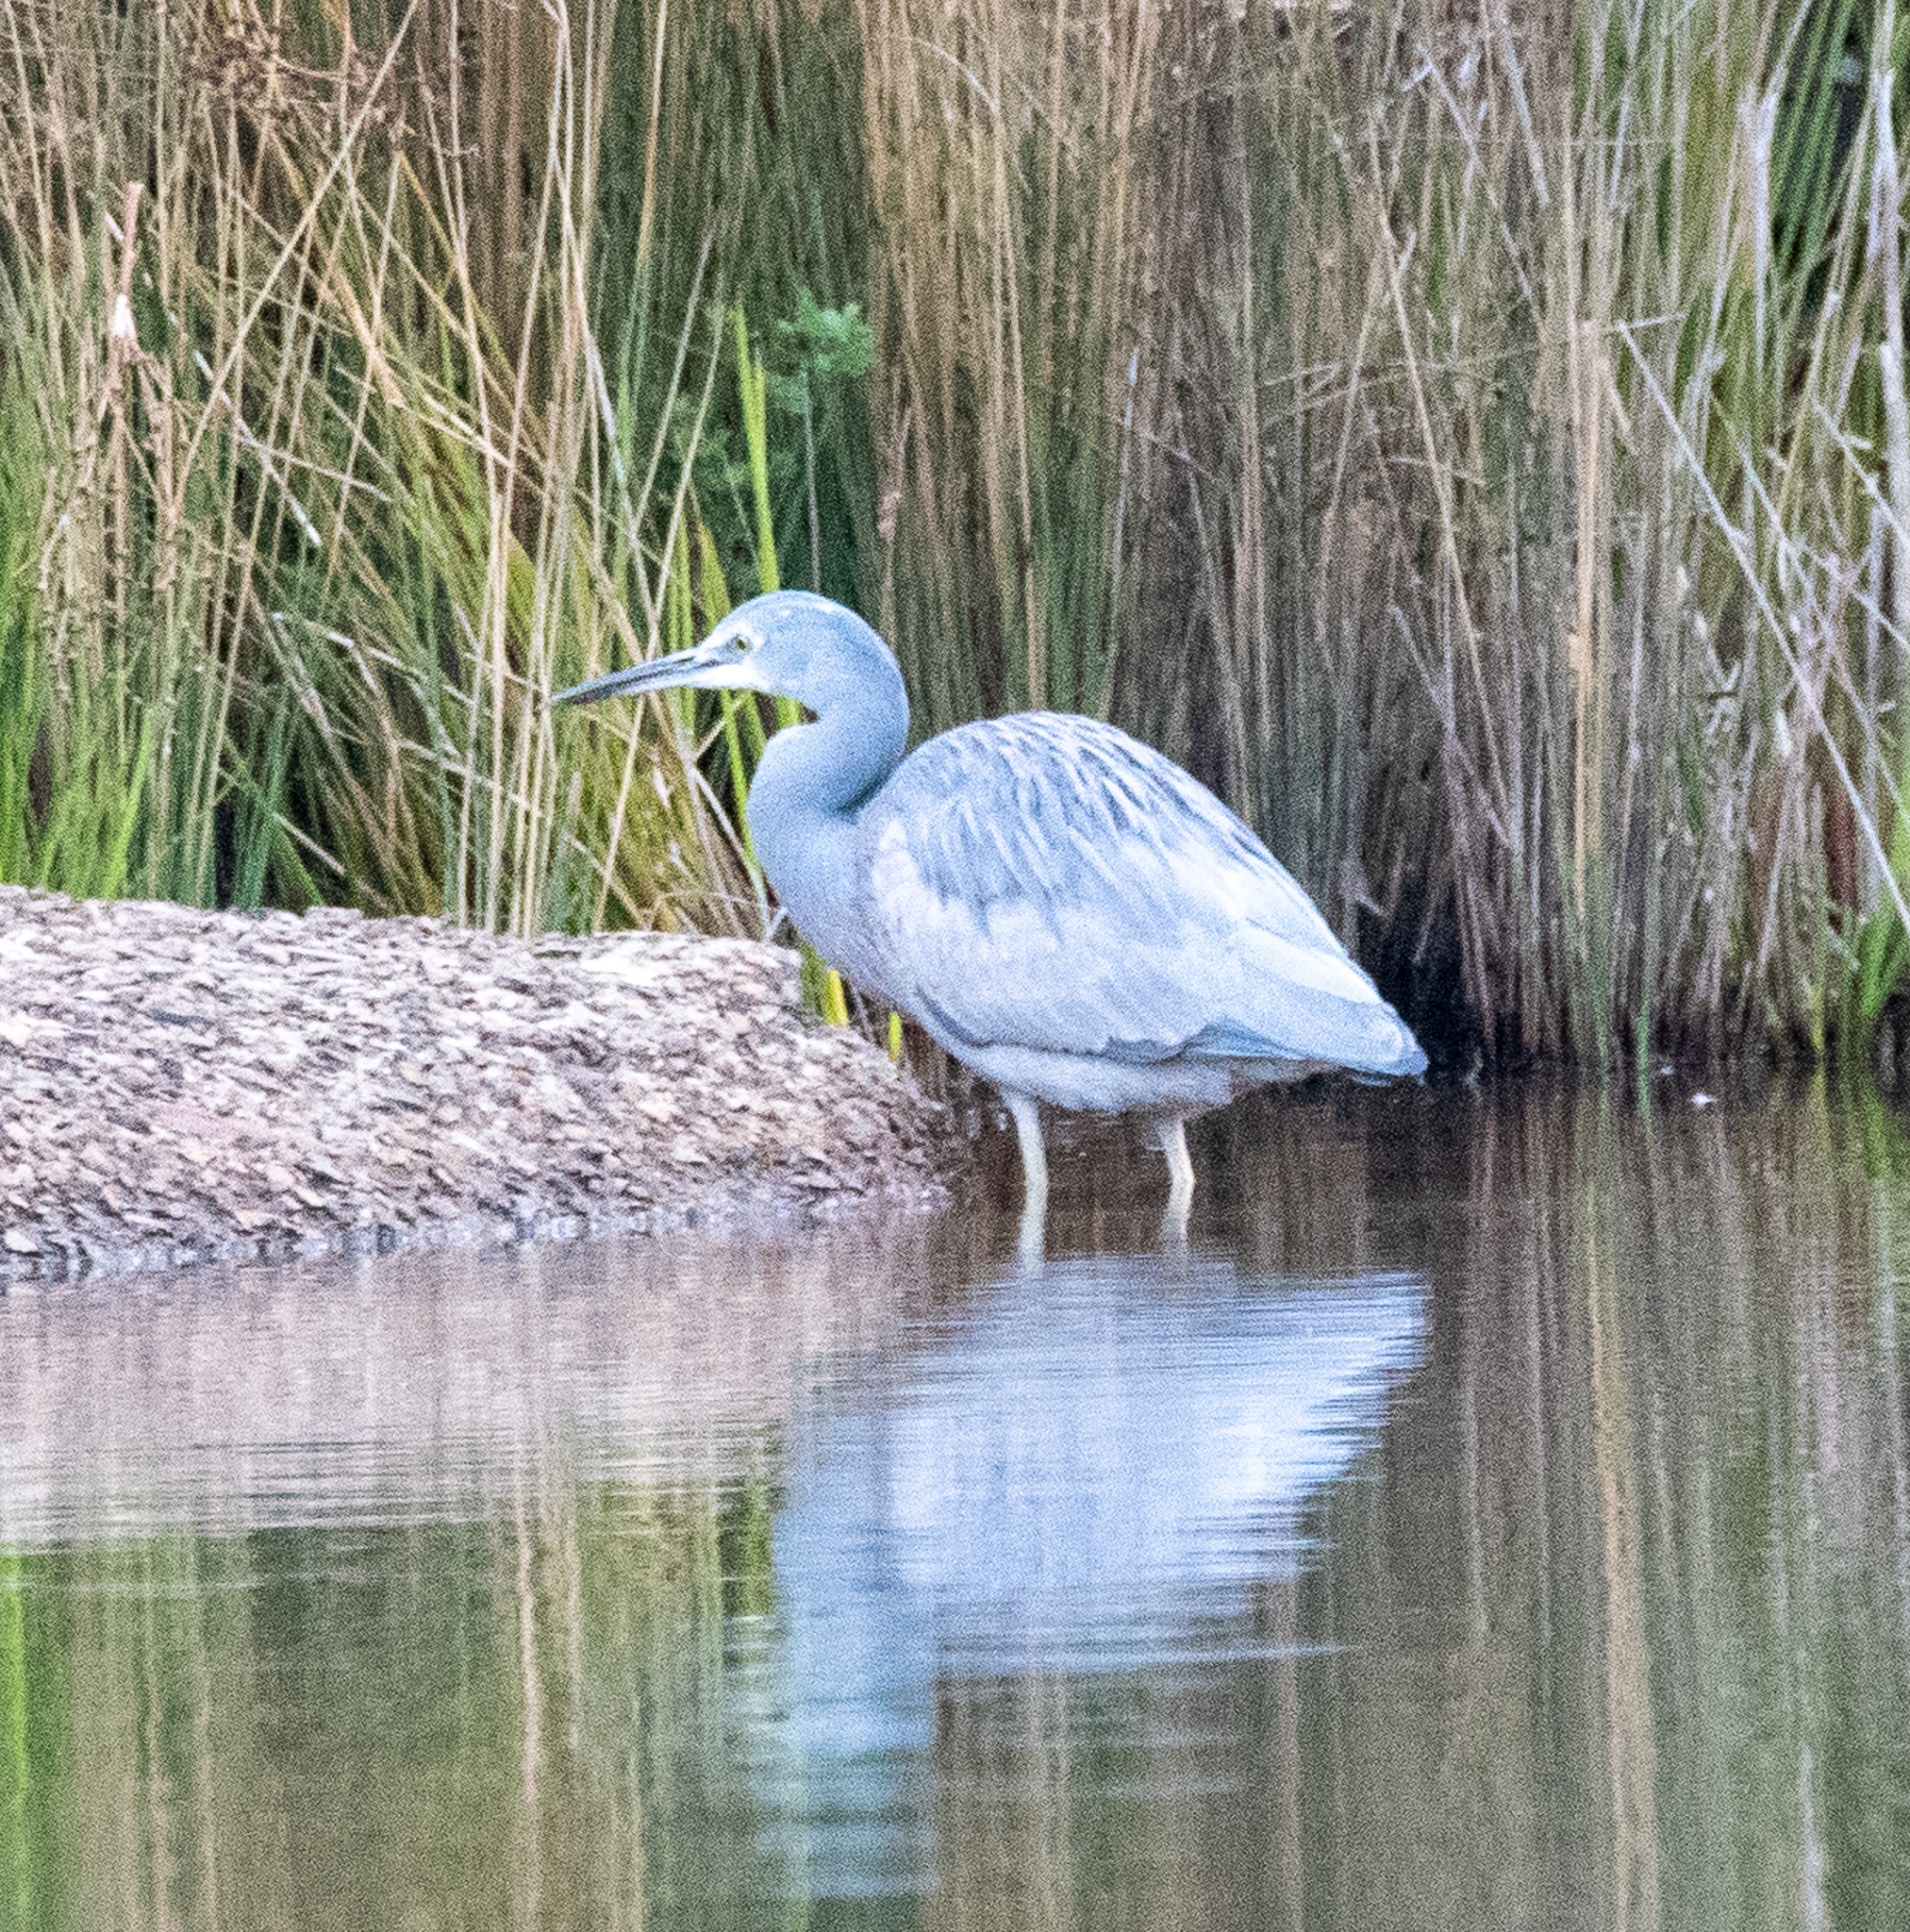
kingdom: Animalia
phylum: Chordata
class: Aves
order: Pelecaniformes
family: Ardeidae
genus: Egretta
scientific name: Egretta novaehollandiae
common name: White-faced heron
